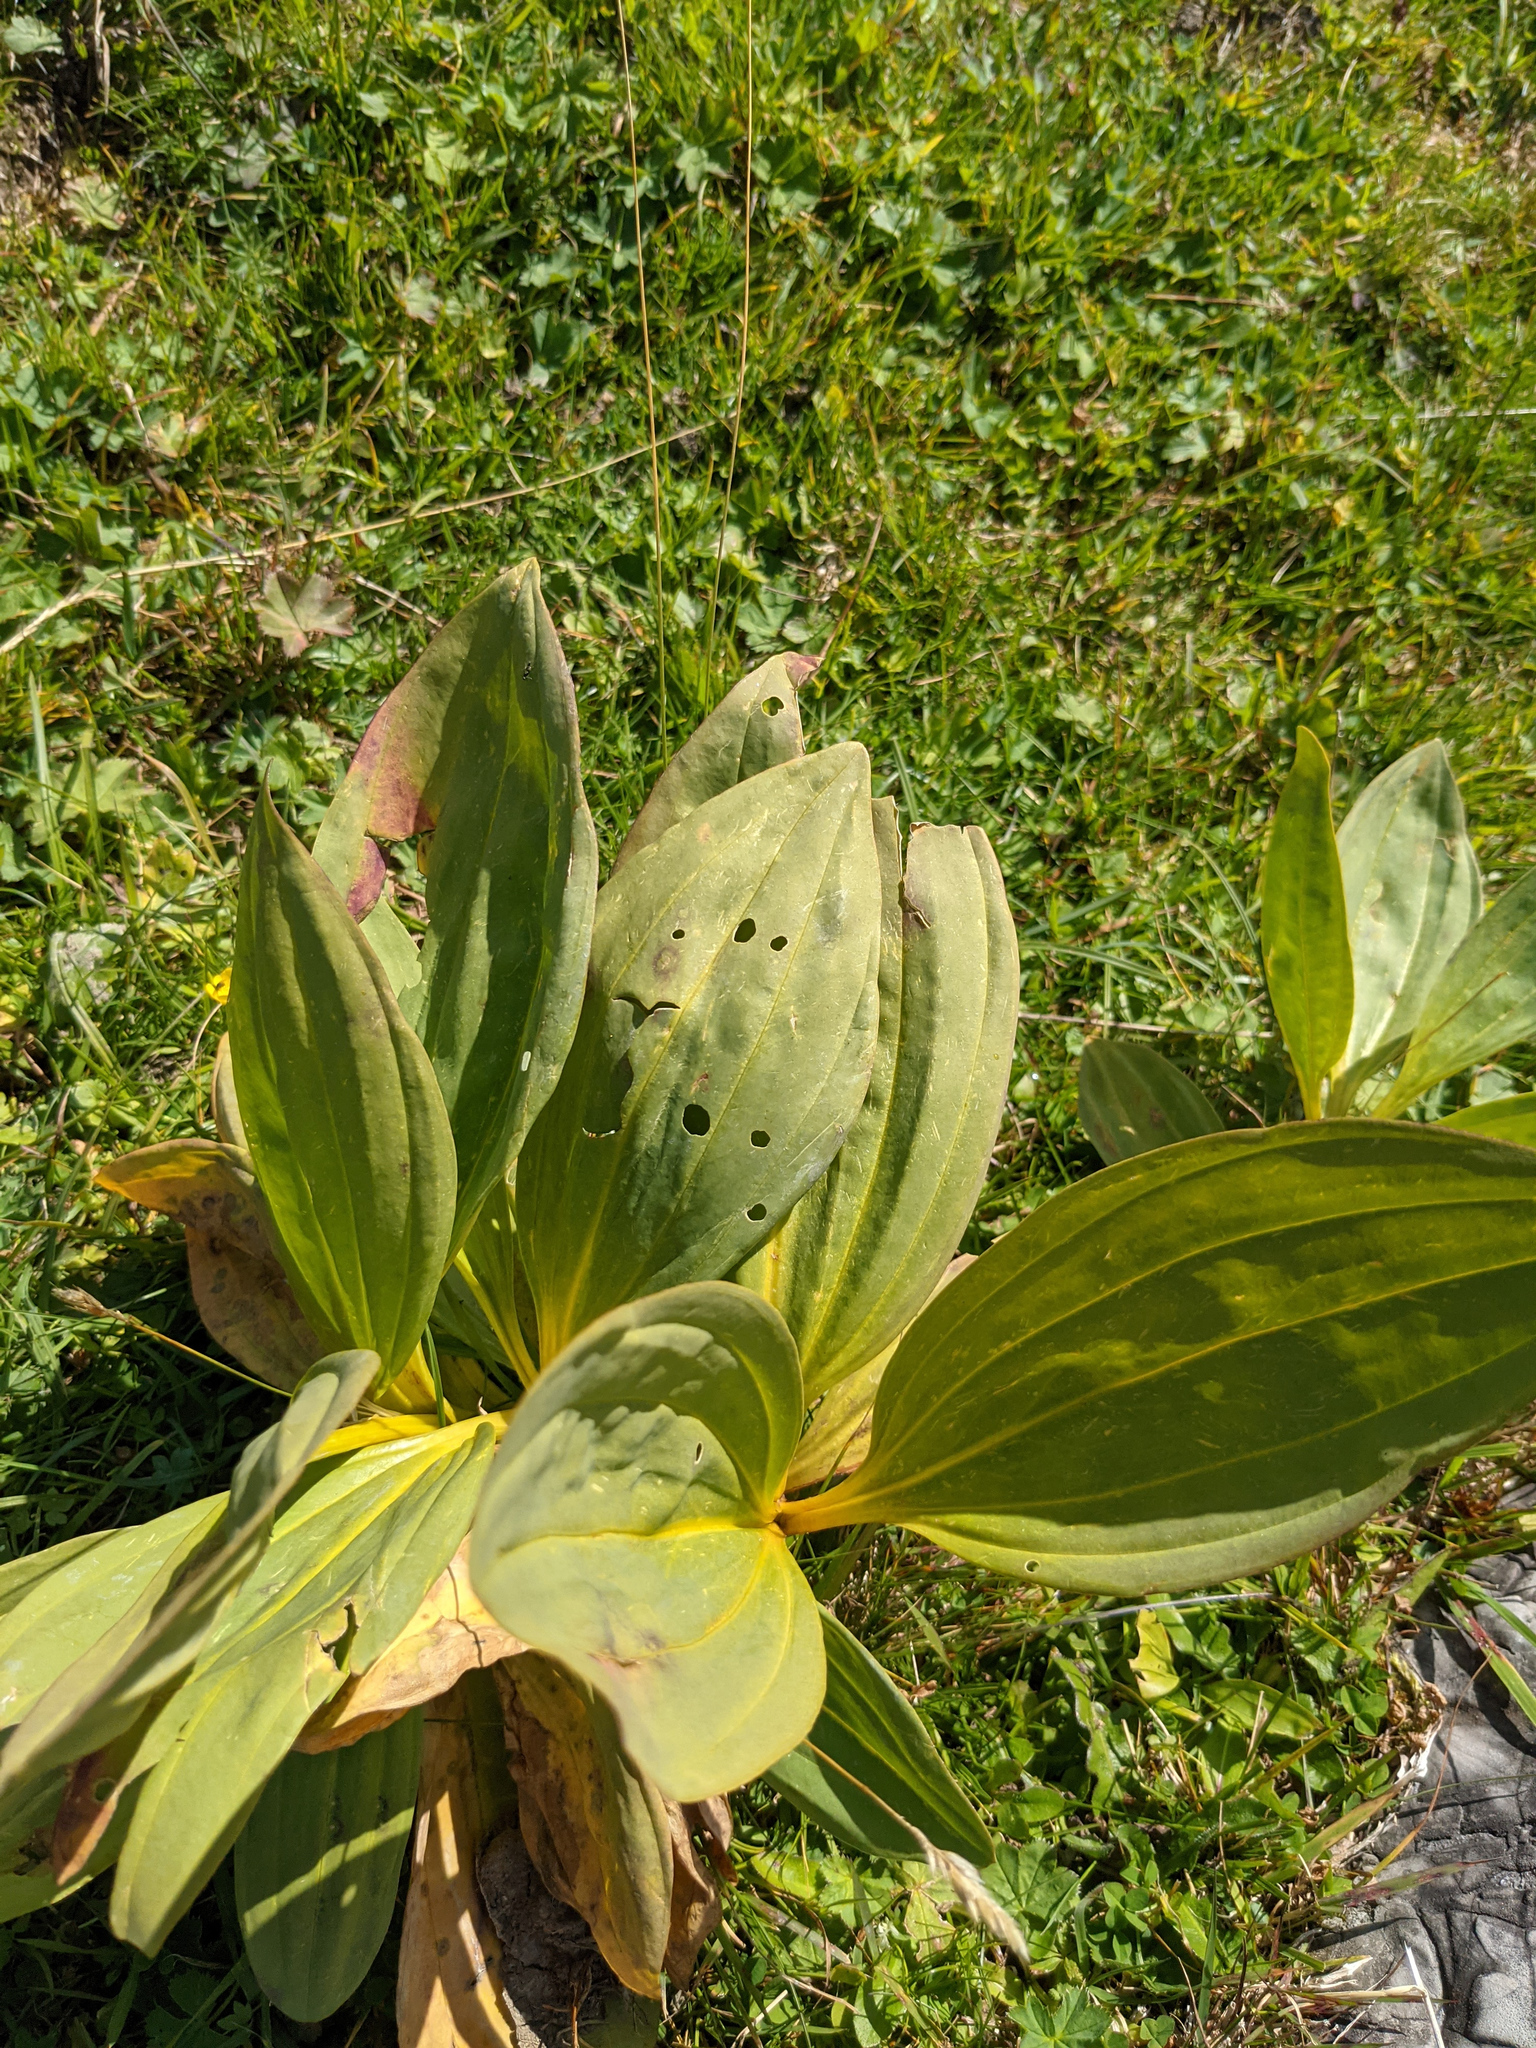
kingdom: Plantae
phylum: Tracheophyta
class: Magnoliopsida
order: Gentianales
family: Gentianaceae
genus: Gentiana
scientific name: Gentiana lutea
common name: Great yellow gentian
